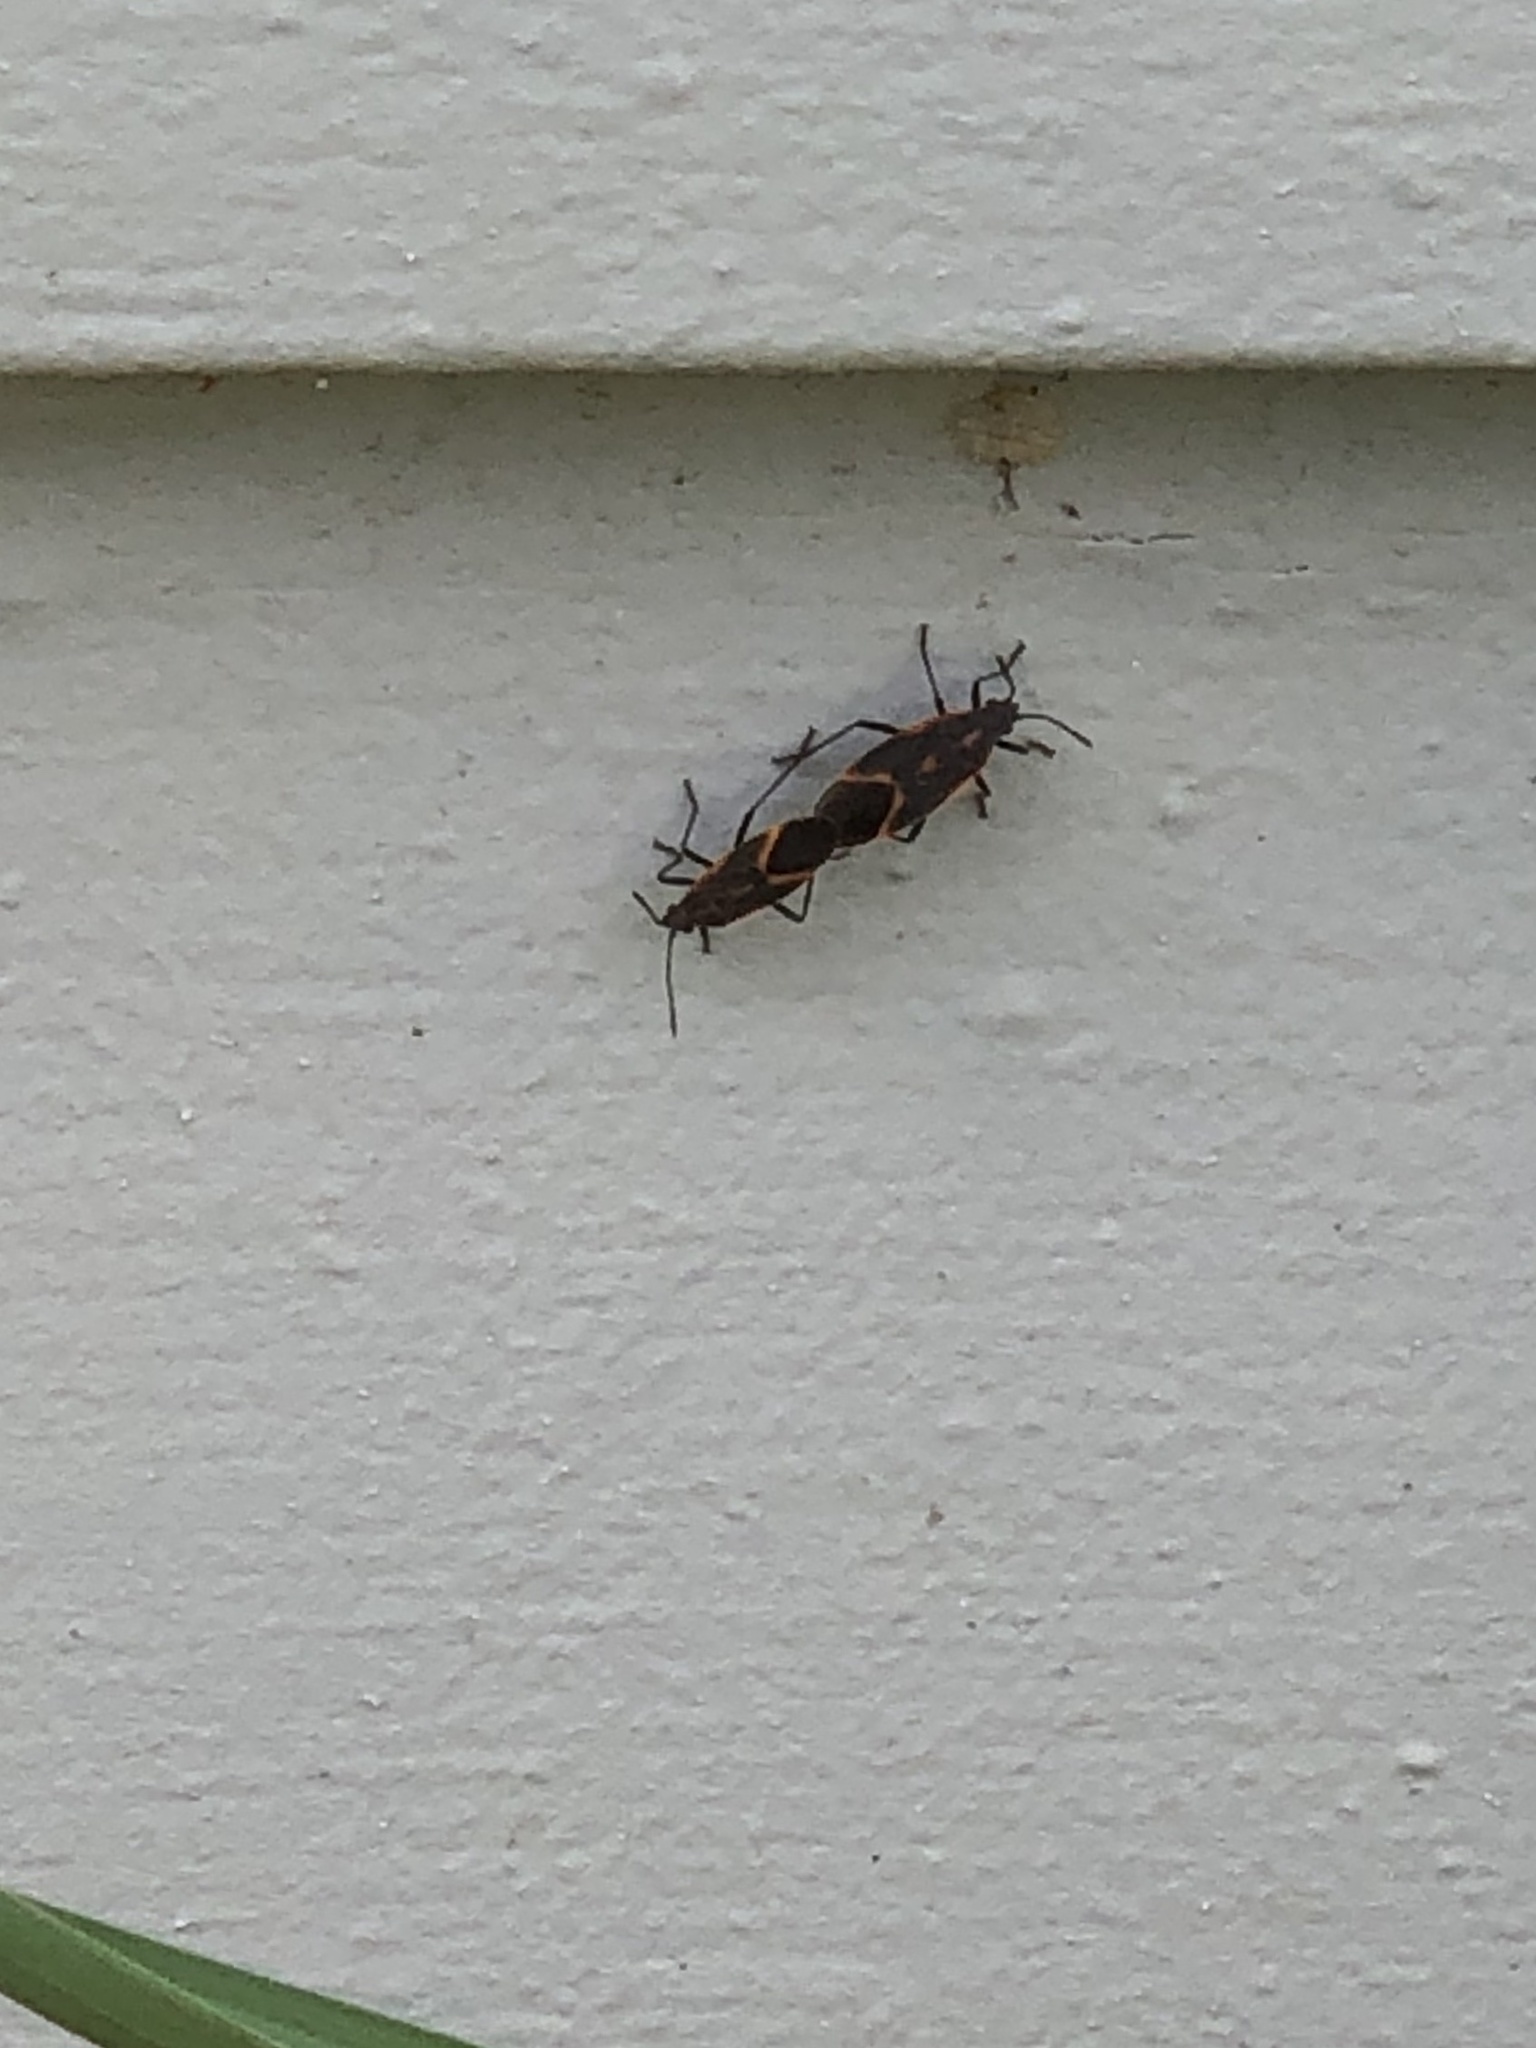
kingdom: Animalia
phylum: Arthropoda
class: Insecta
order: Hemiptera
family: Rhopalidae
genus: Boisea
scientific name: Boisea trivittata
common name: Boxelder bug
